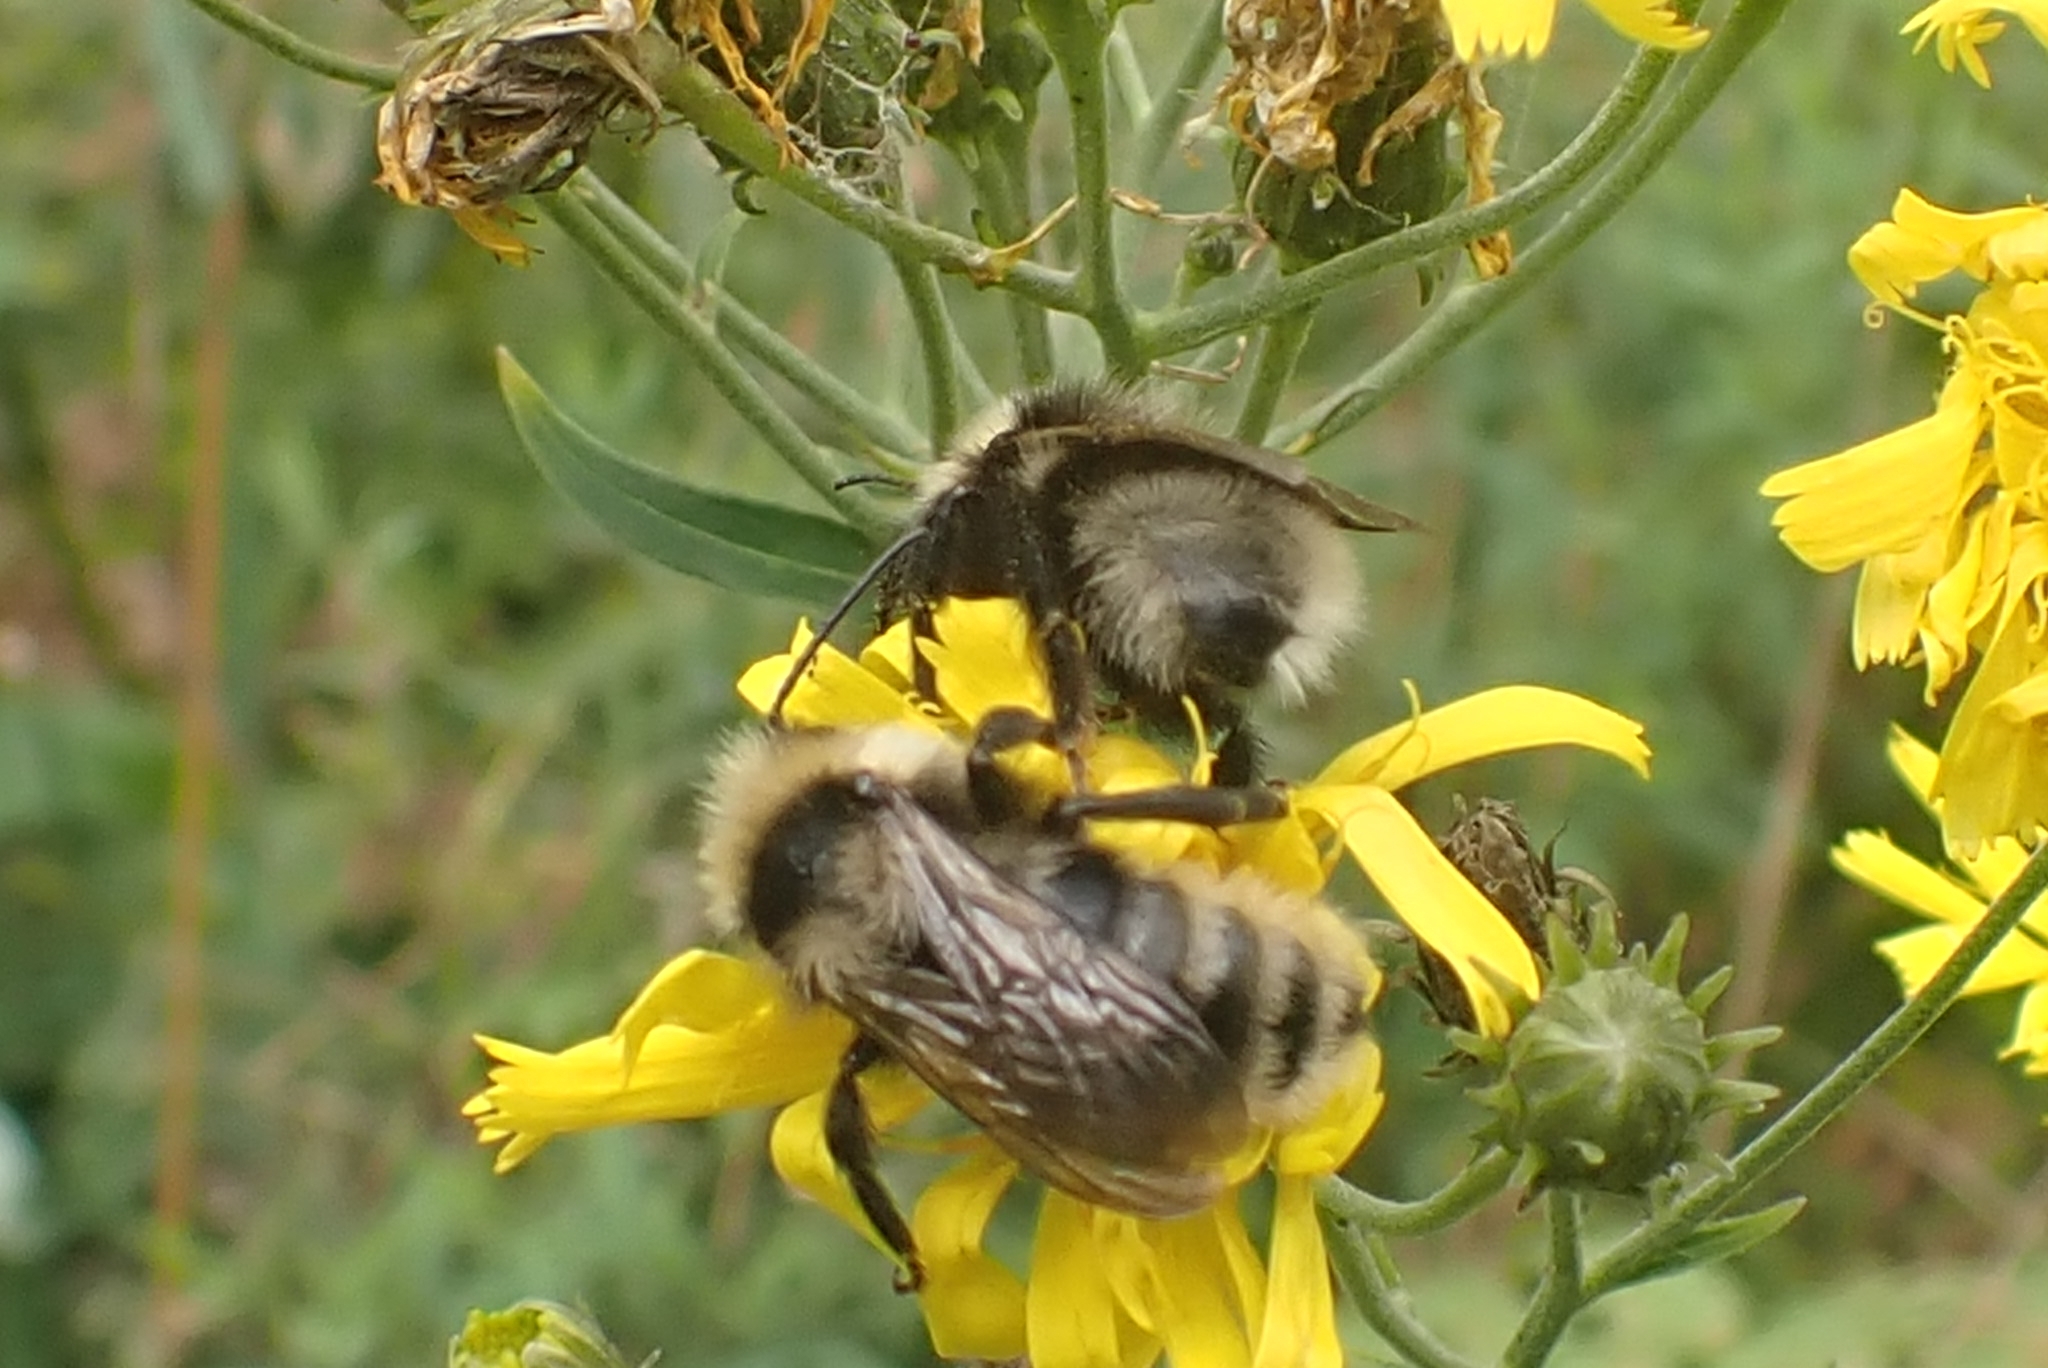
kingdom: Animalia
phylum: Arthropoda
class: Insecta
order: Hymenoptera
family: Apidae
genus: Bombus
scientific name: Bombus campestris
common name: Field cuckoo-bee
